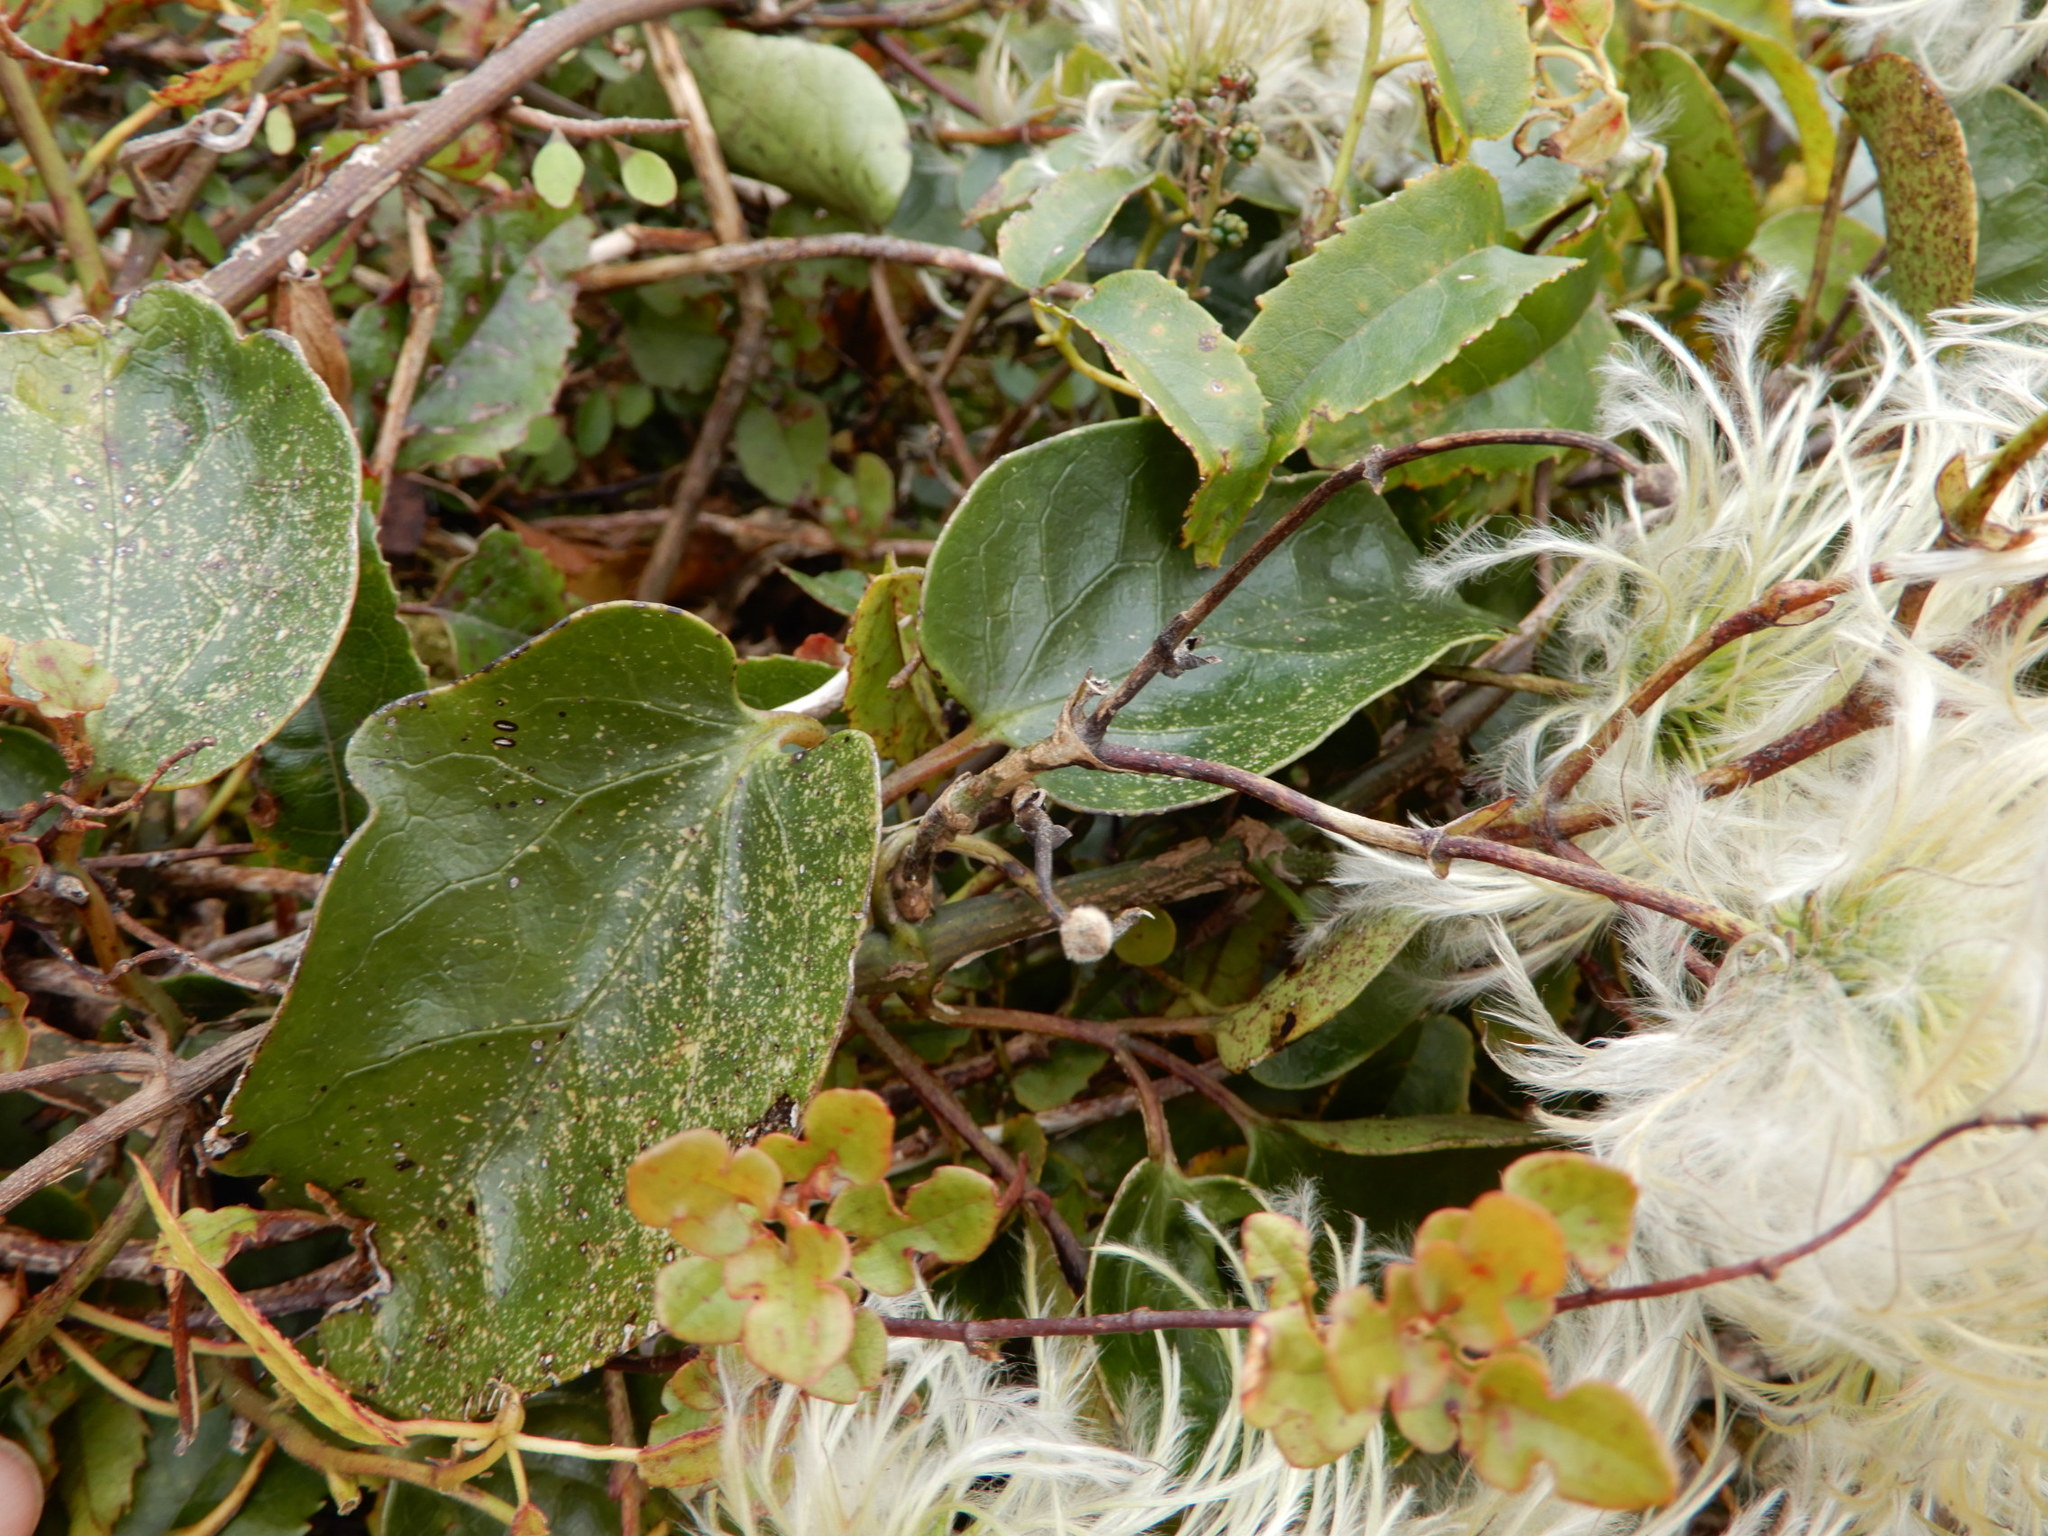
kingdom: Plantae
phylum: Tracheophyta
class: Magnoliopsida
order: Ranunculales
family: Ranunculaceae
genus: Clematis
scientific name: Clematis forsteri
